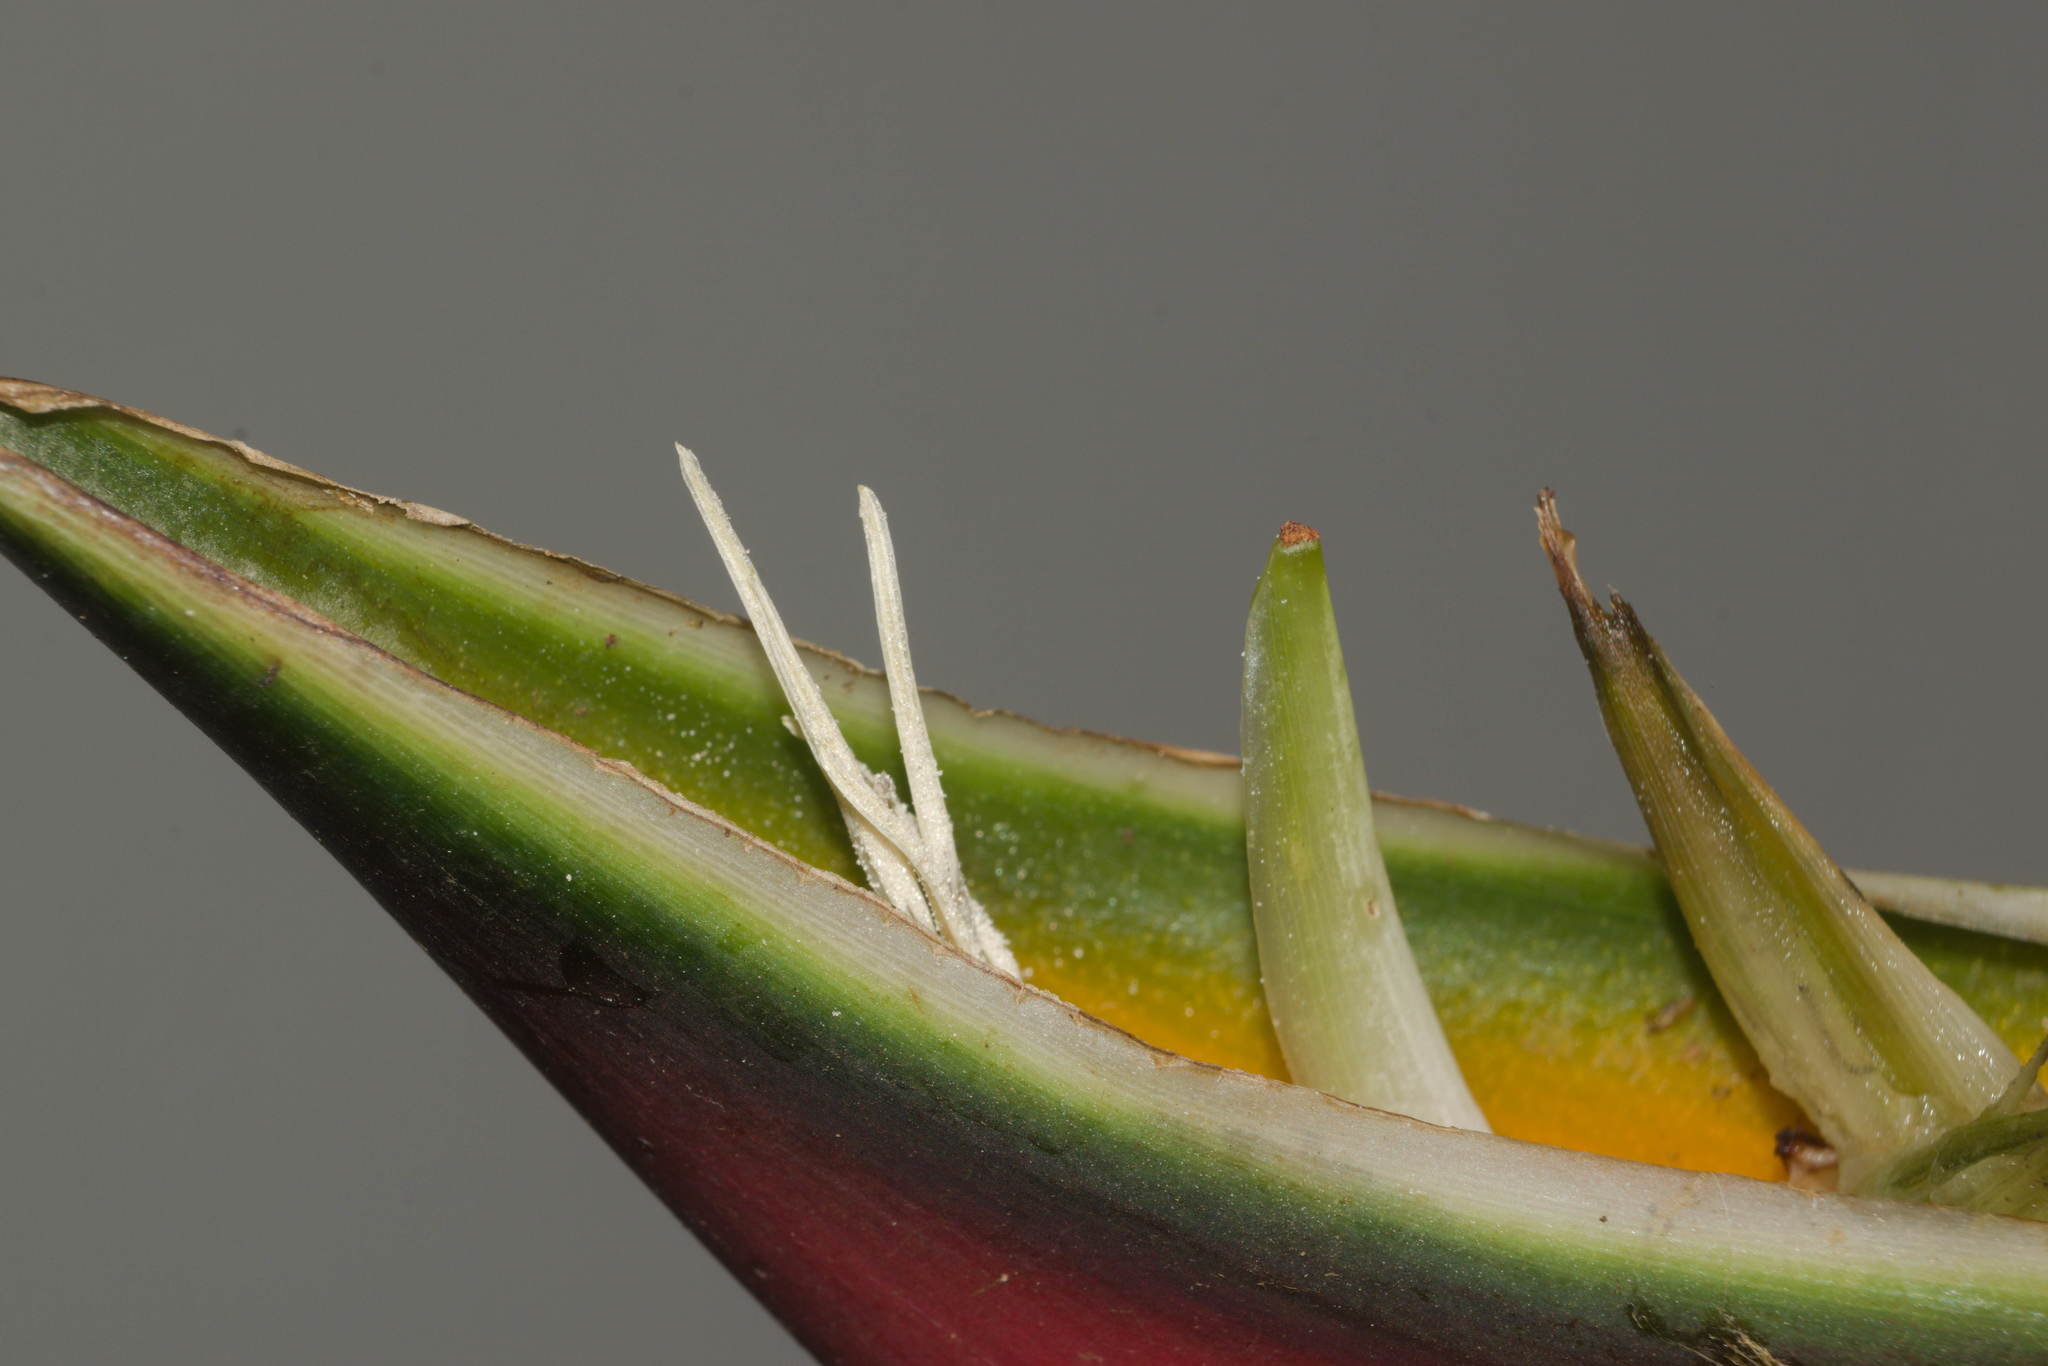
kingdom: Plantae
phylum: Tracheophyta
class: Liliopsida
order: Zingiberales
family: Heliconiaceae
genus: Heliconia
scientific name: Heliconia bihai
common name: Macaw flower
